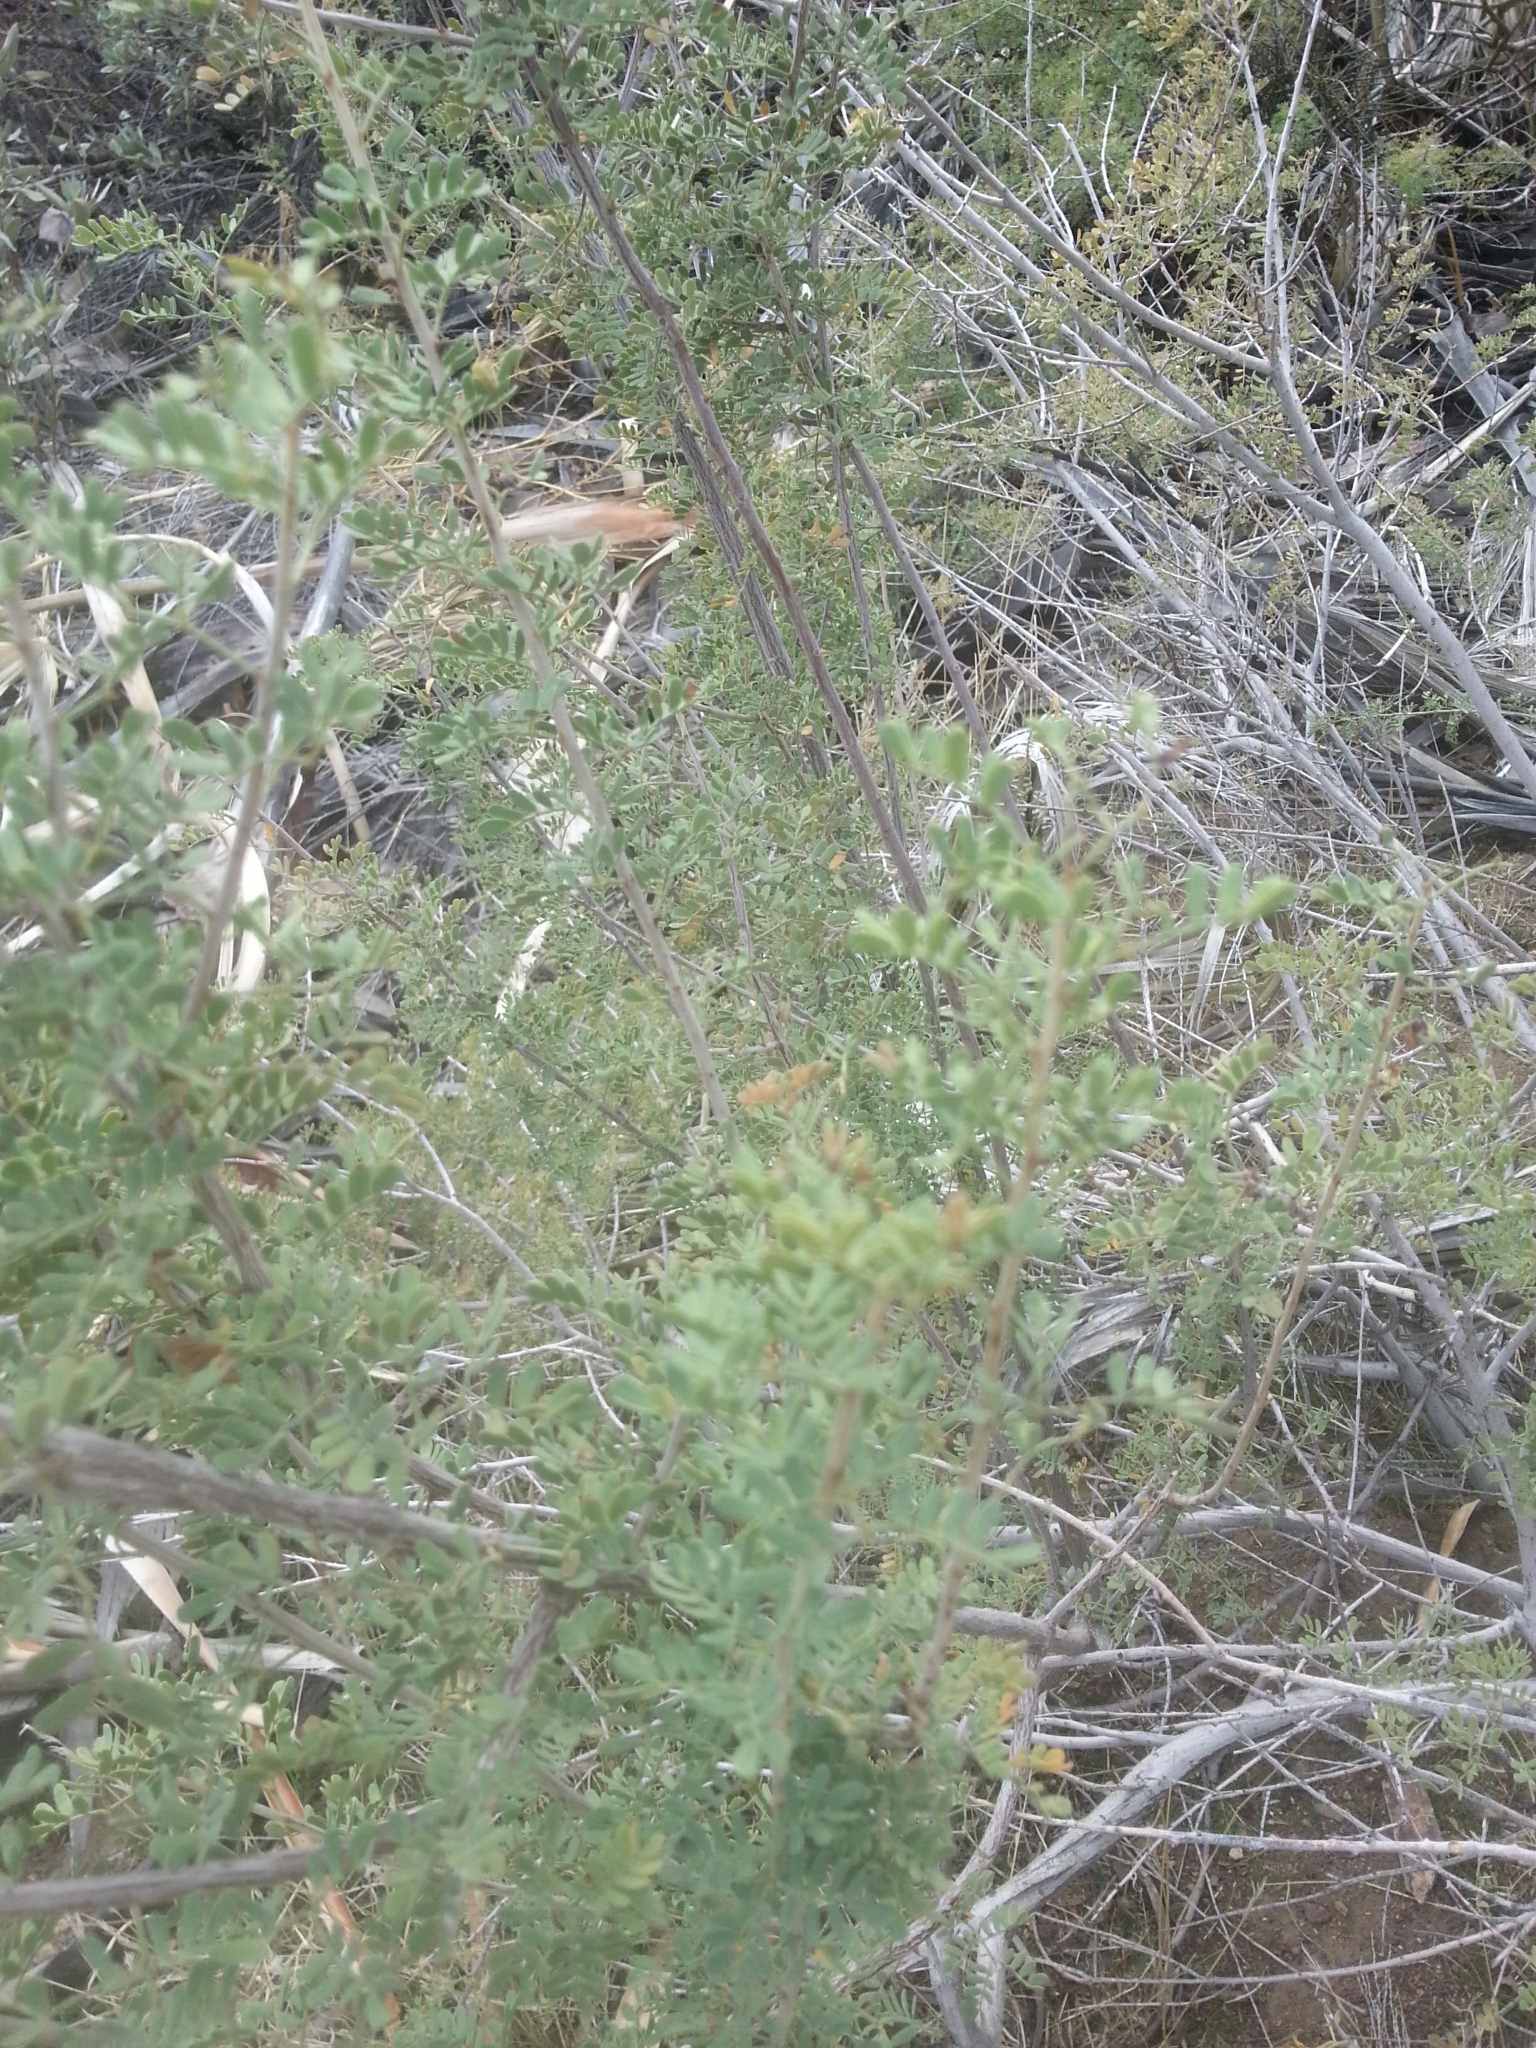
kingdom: Plantae
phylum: Tracheophyta
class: Magnoliopsida
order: Fabales
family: Fabaceae
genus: Senegalia
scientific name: Senegalia greggii
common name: Texas-mimosa
